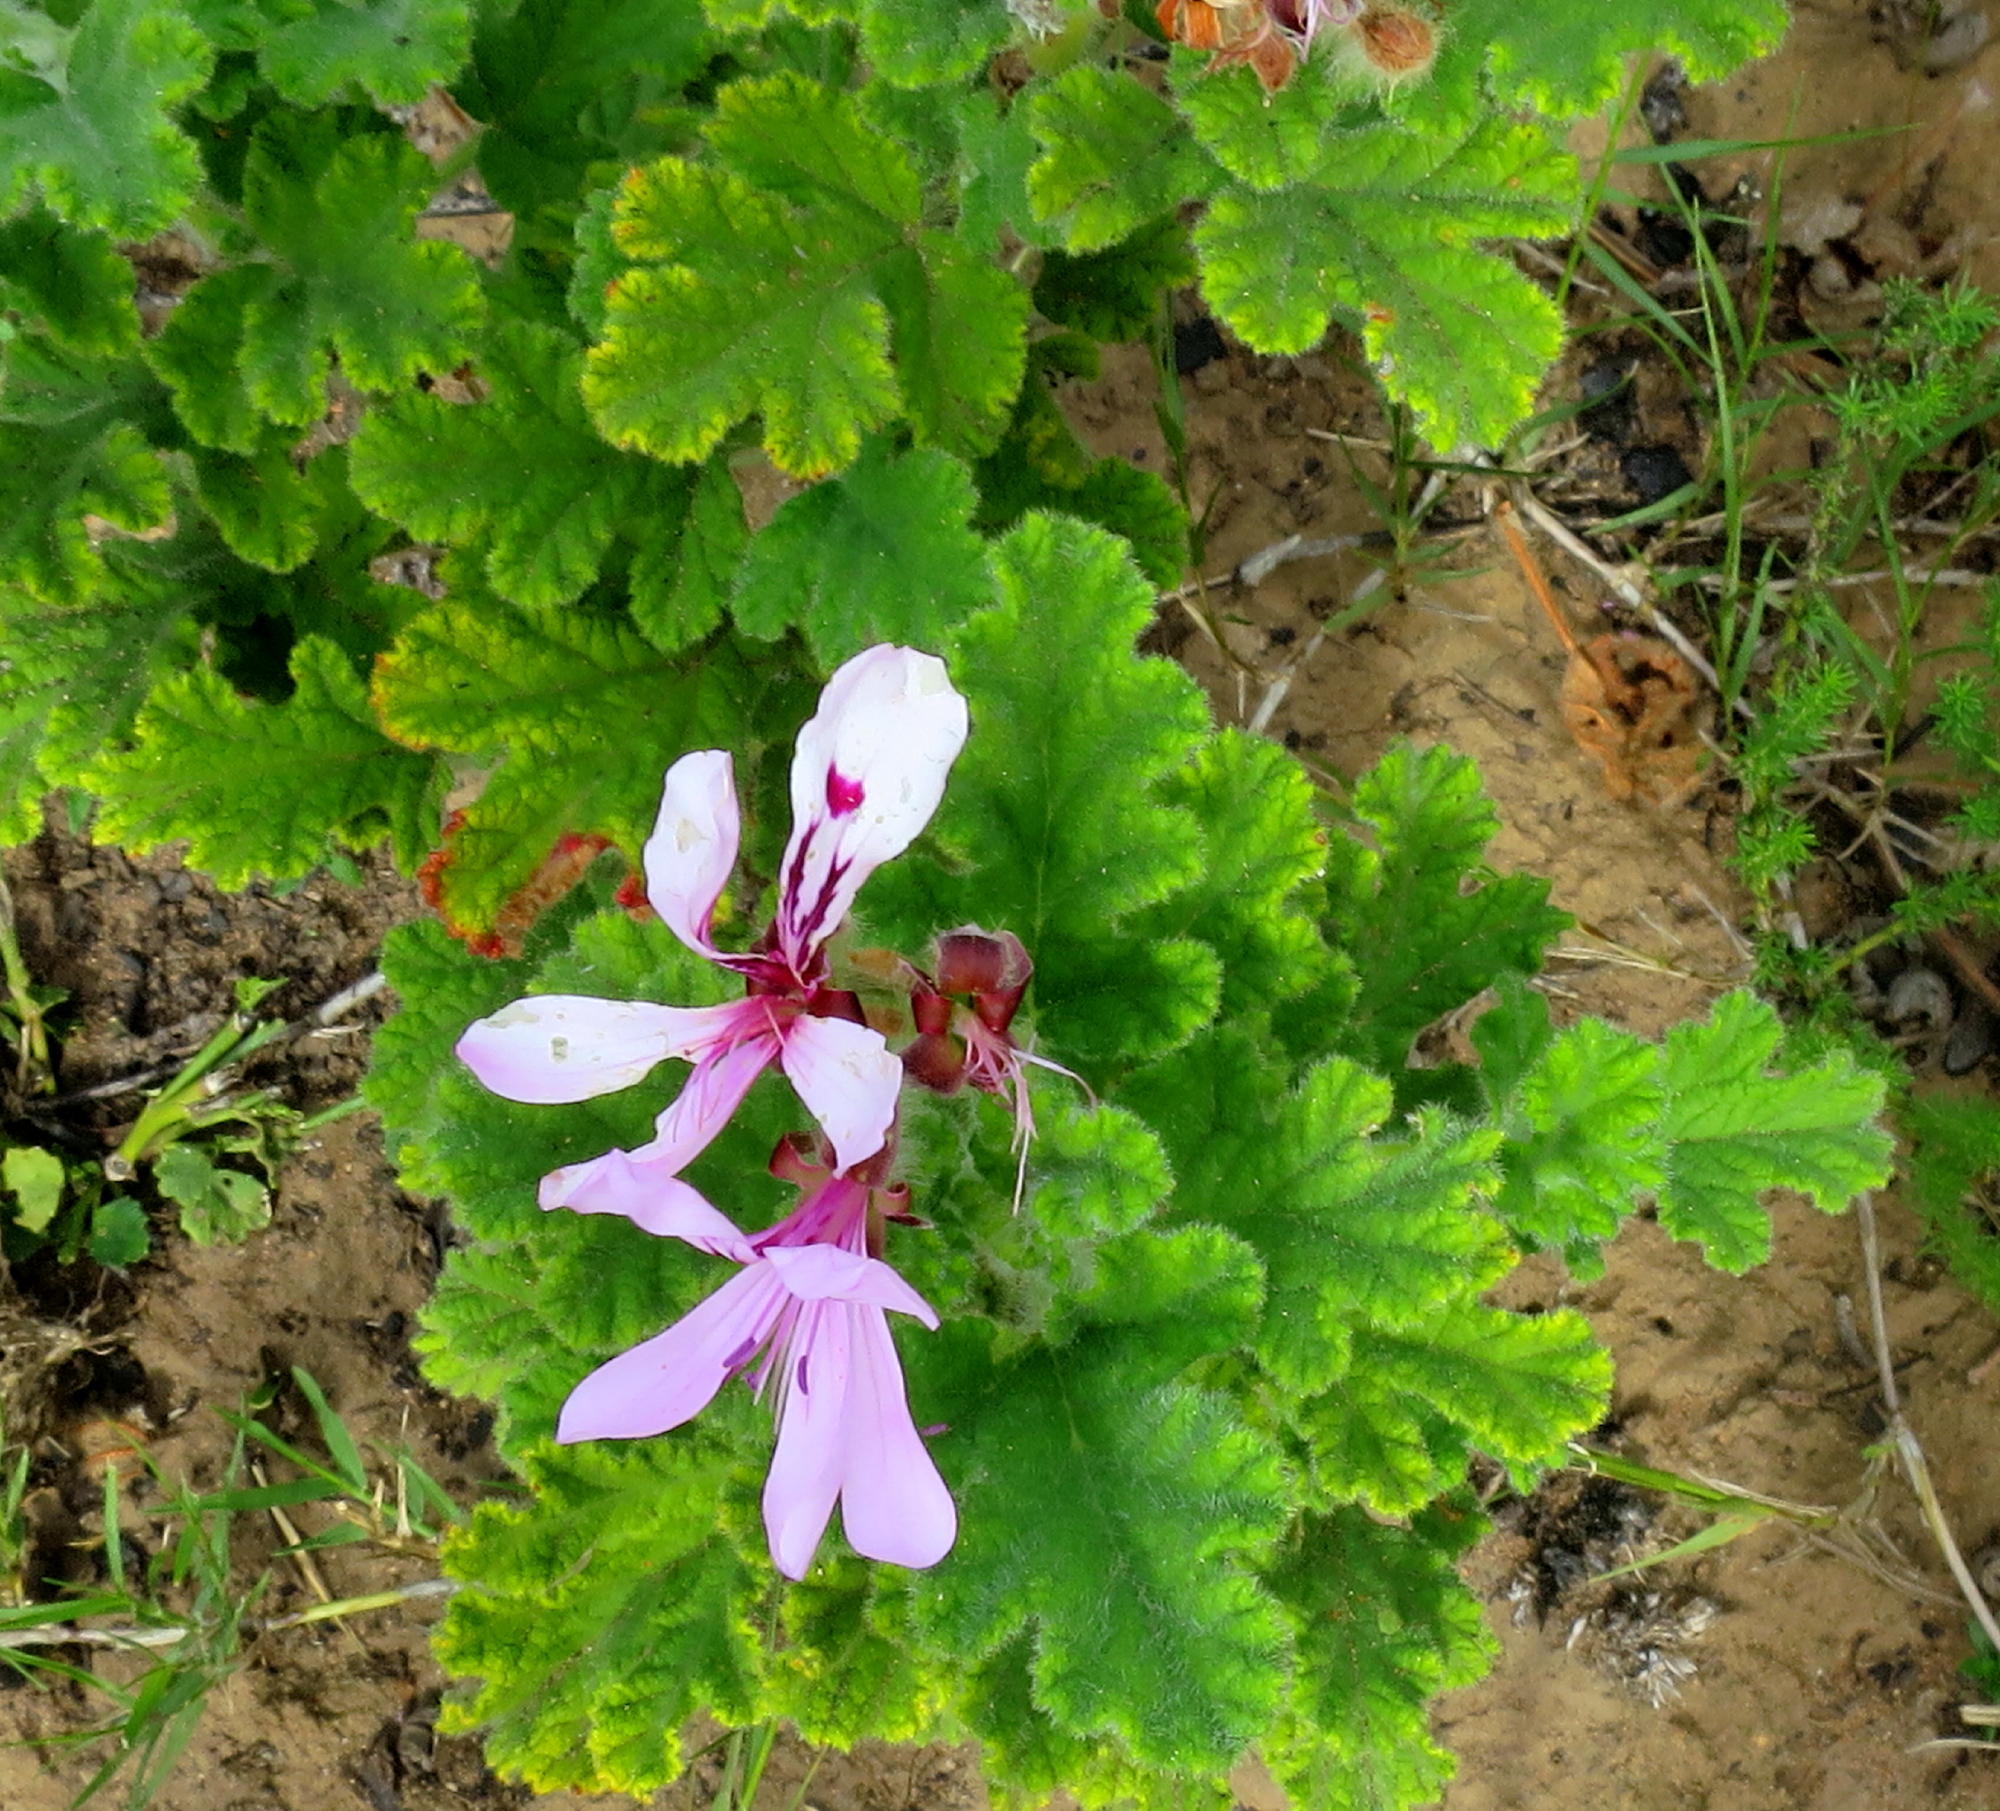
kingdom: Plantae
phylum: Tracheophyta
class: Magnoliopsida
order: Geraniales
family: Geraniaceae
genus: Pelargonium
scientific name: Pelargonium panduriforme
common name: Oakleaf garden geranium
